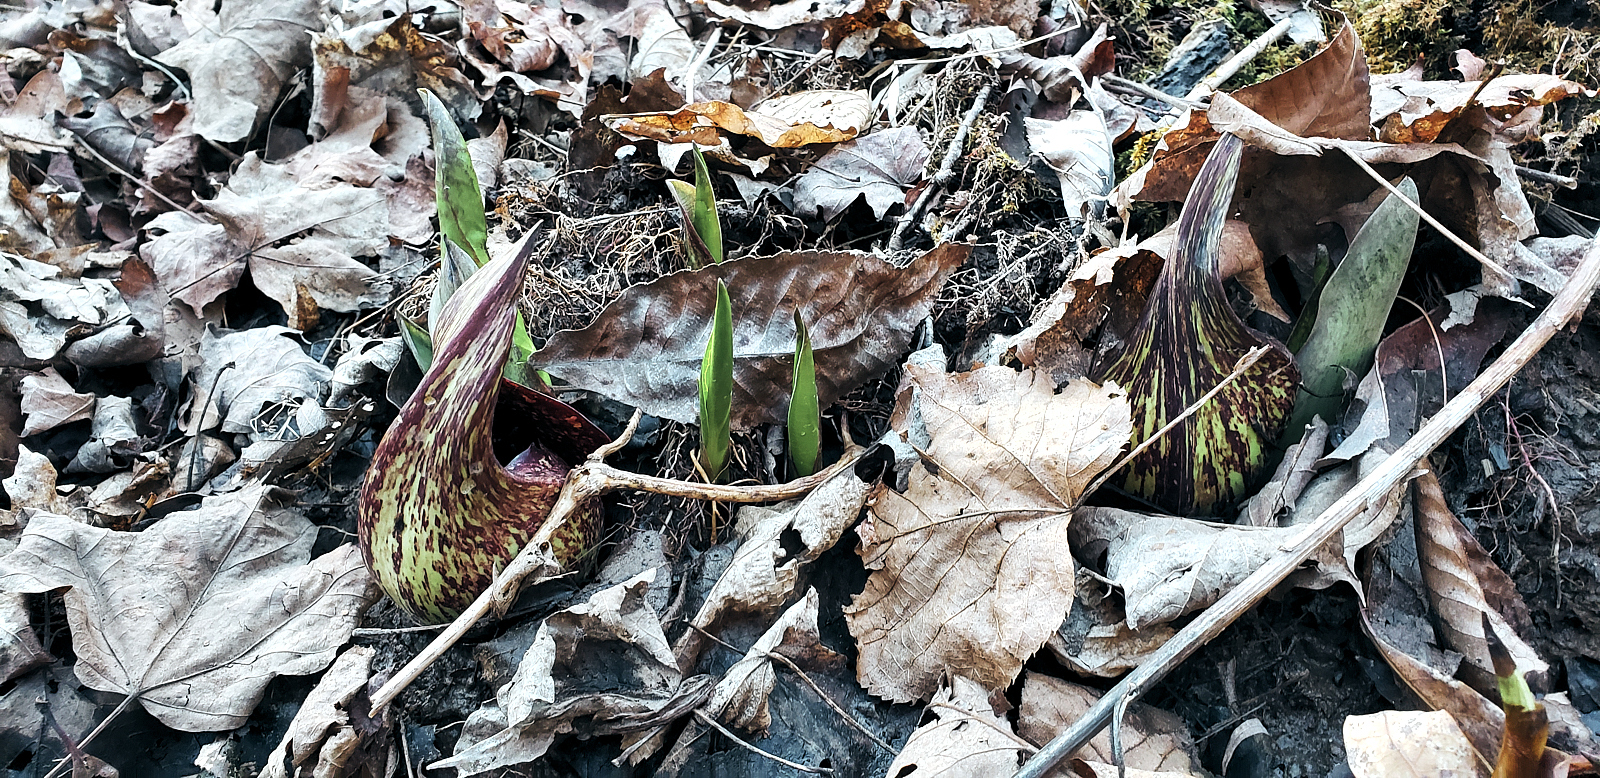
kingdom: Plantae
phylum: Tracheophyta
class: Liliopsida
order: Alismatales
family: Araceae
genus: Symplocarpus
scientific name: Symplocarpus foetidus
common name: Eastern skunk cabbage
